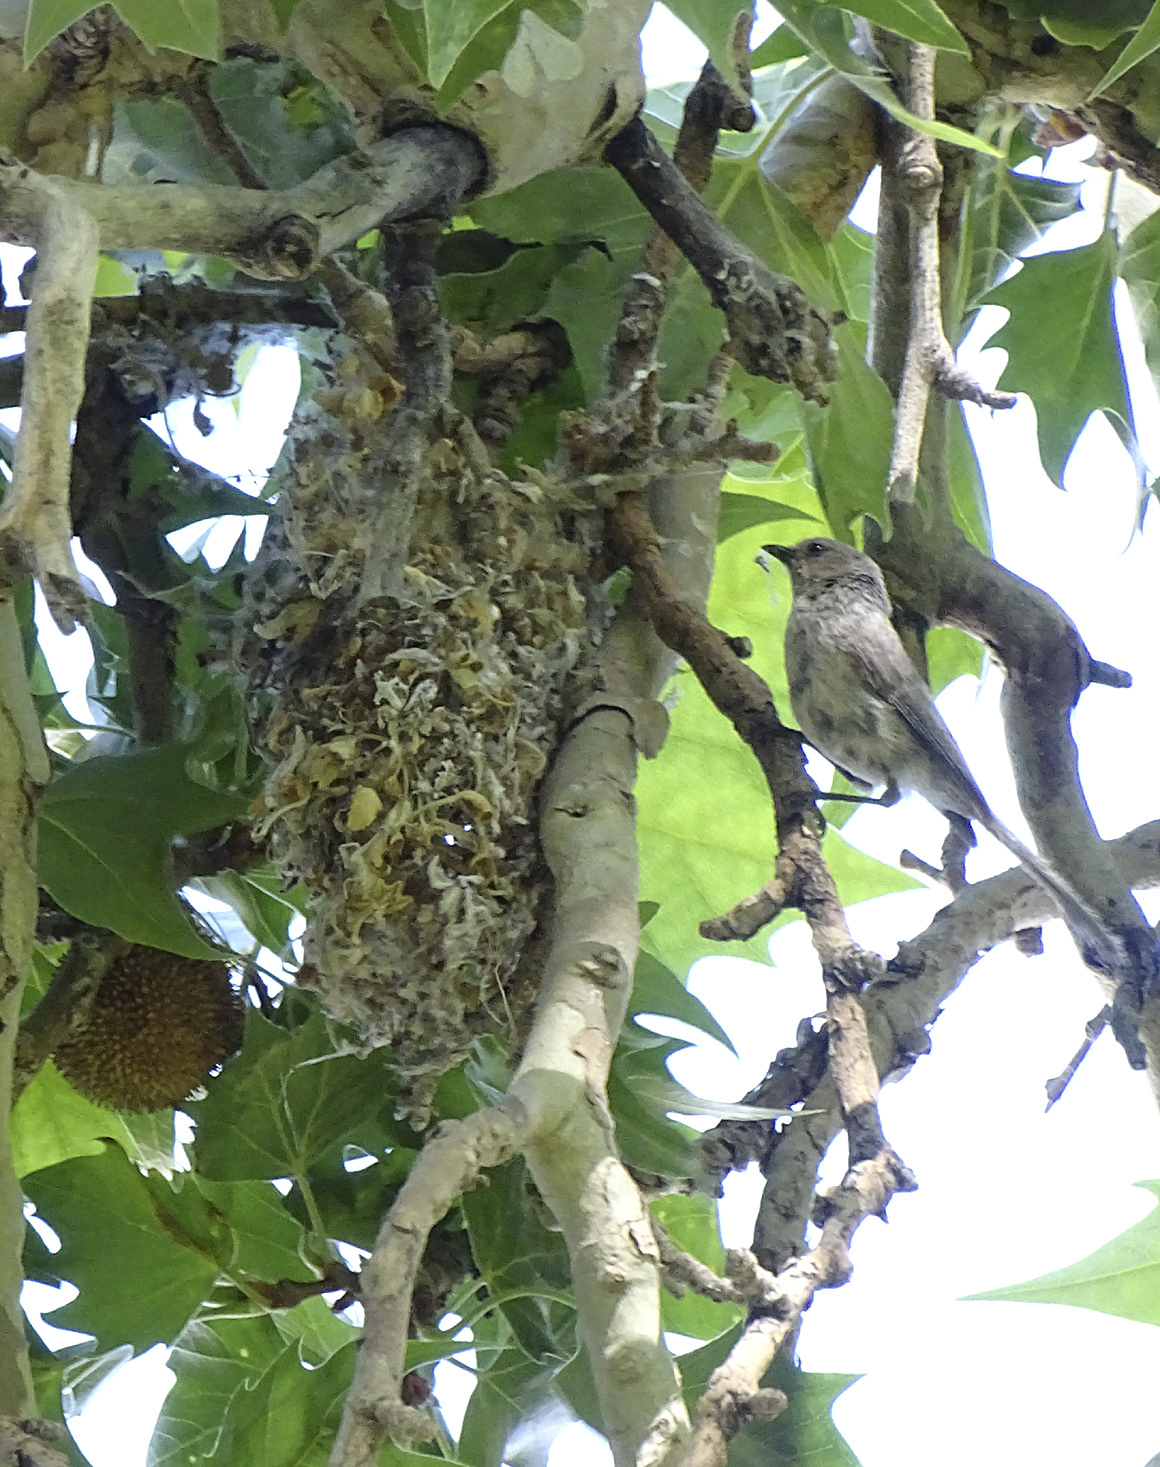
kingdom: Animalia
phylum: Chordata
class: Aves
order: Passeriformes
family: Aegithalidae
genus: Psaltriparus
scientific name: Psaltriparus minimus
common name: American bushtit
